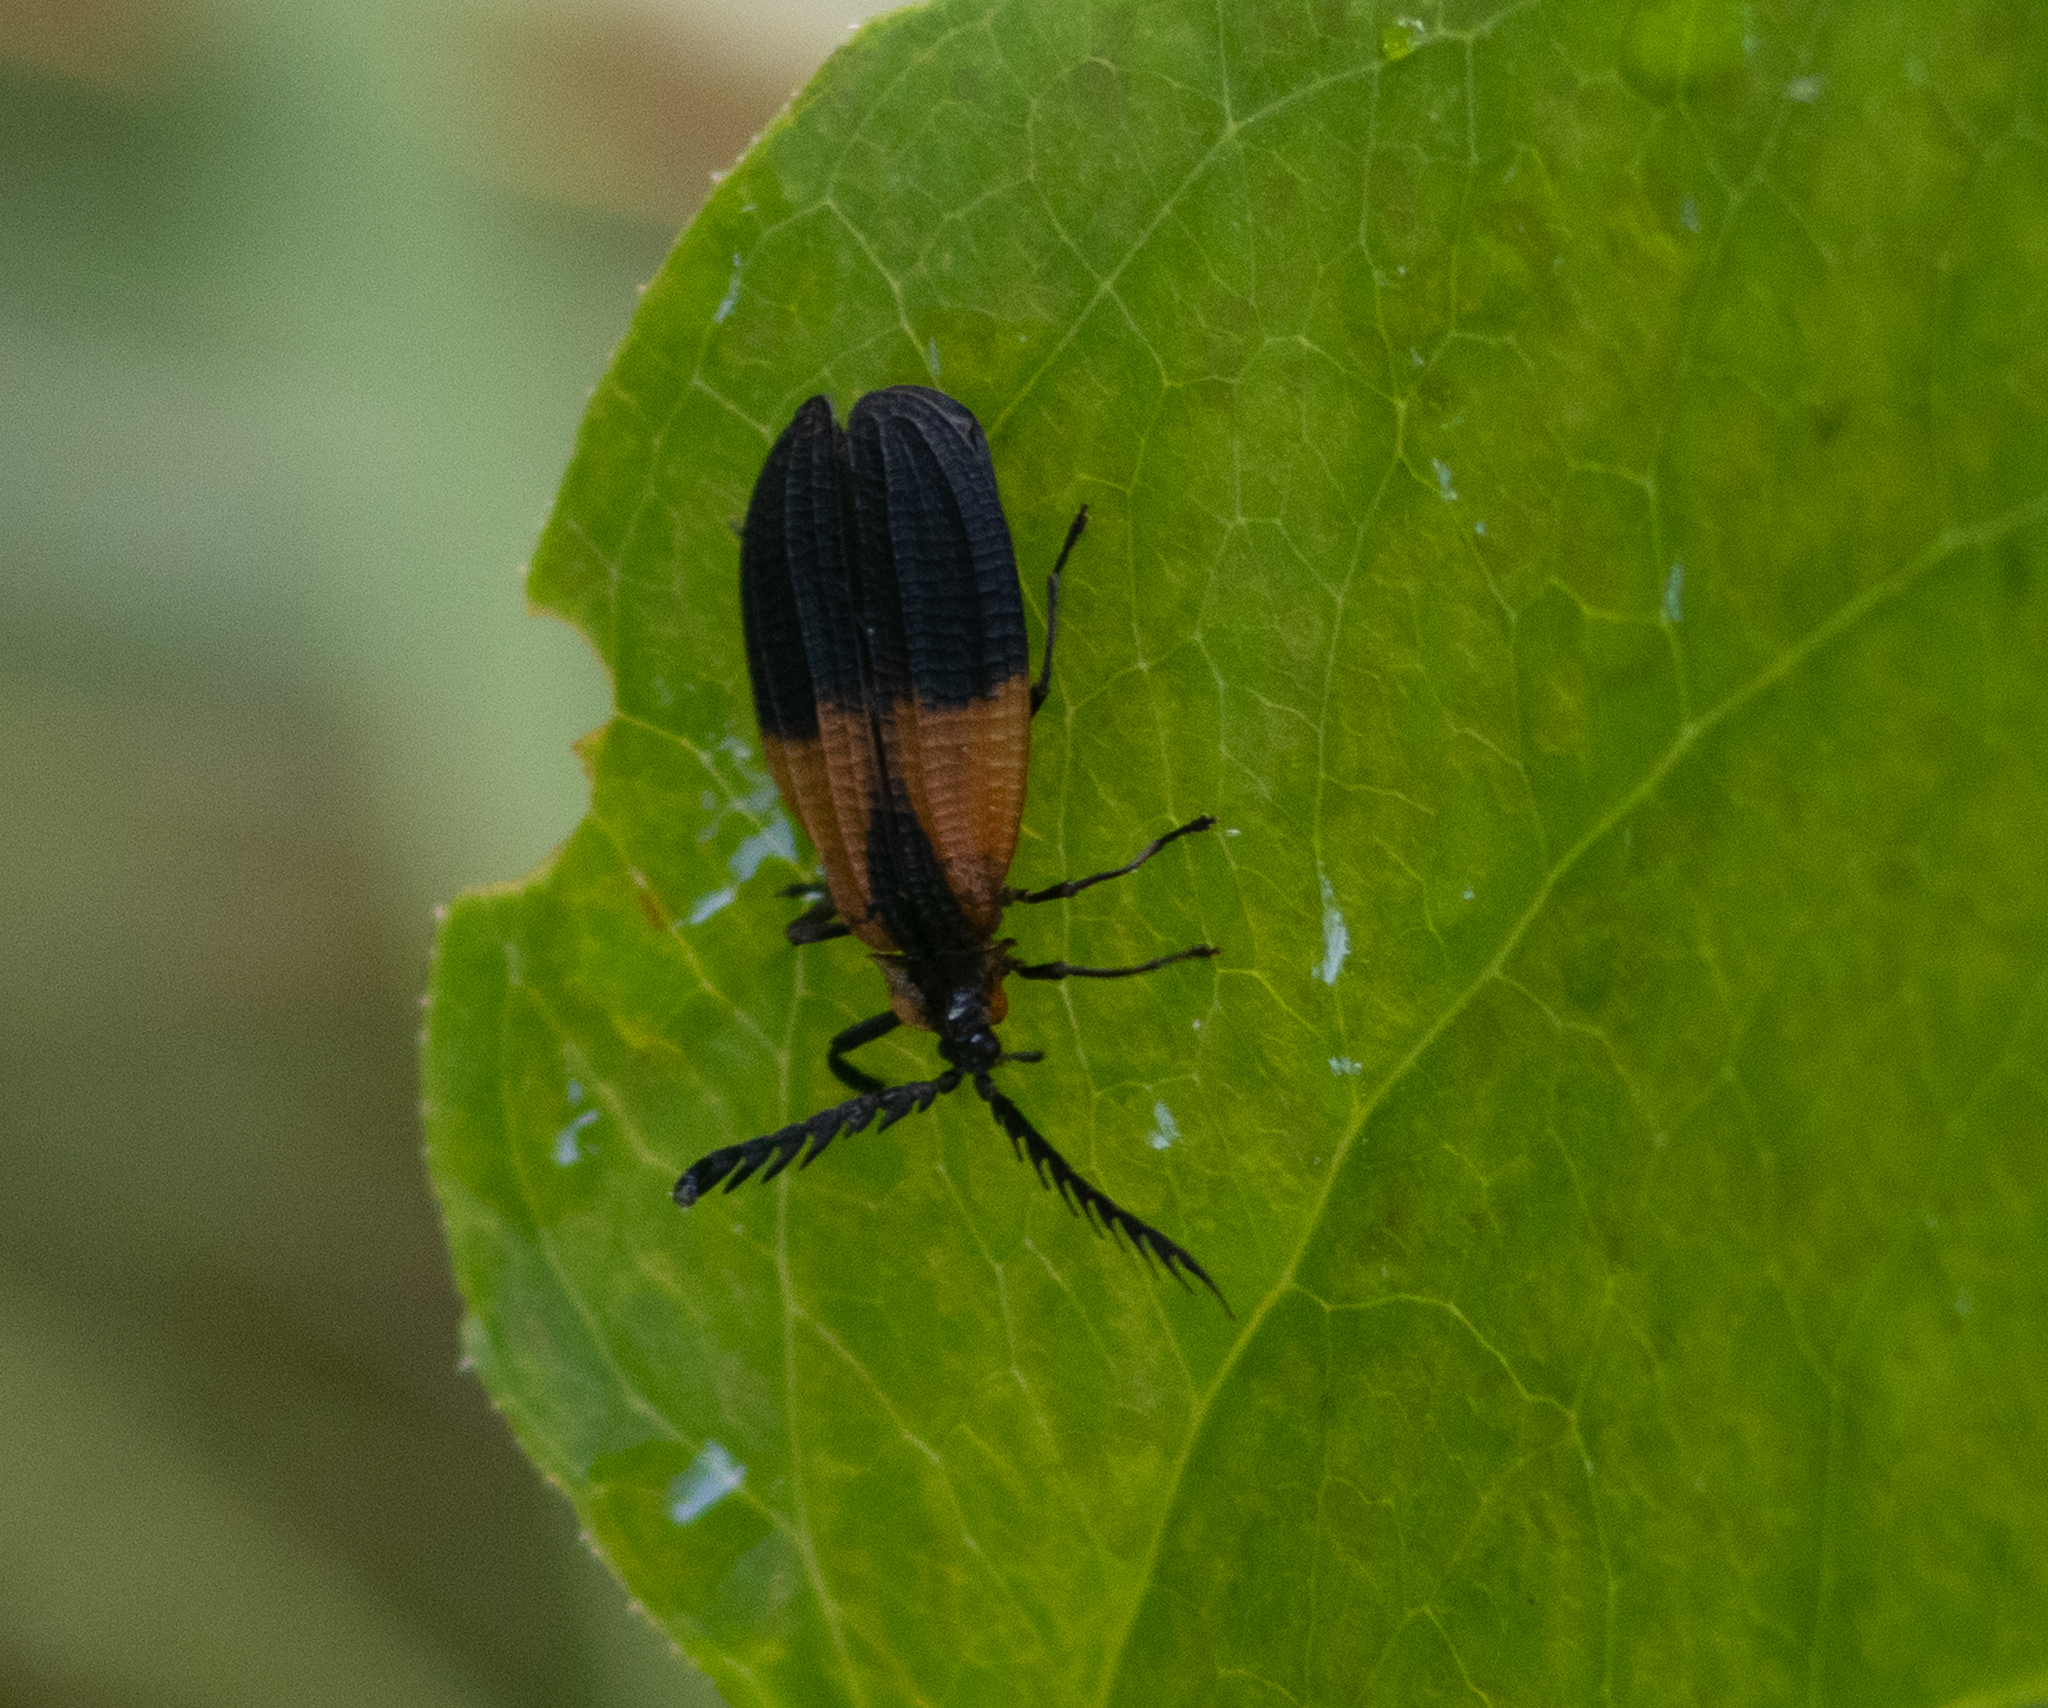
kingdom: Animalia
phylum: Arthropoda
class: Insecta
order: Coleoptera
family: Lycidae
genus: Caenia
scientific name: Caenia dimidiata
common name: Terminal net-winged beetle
